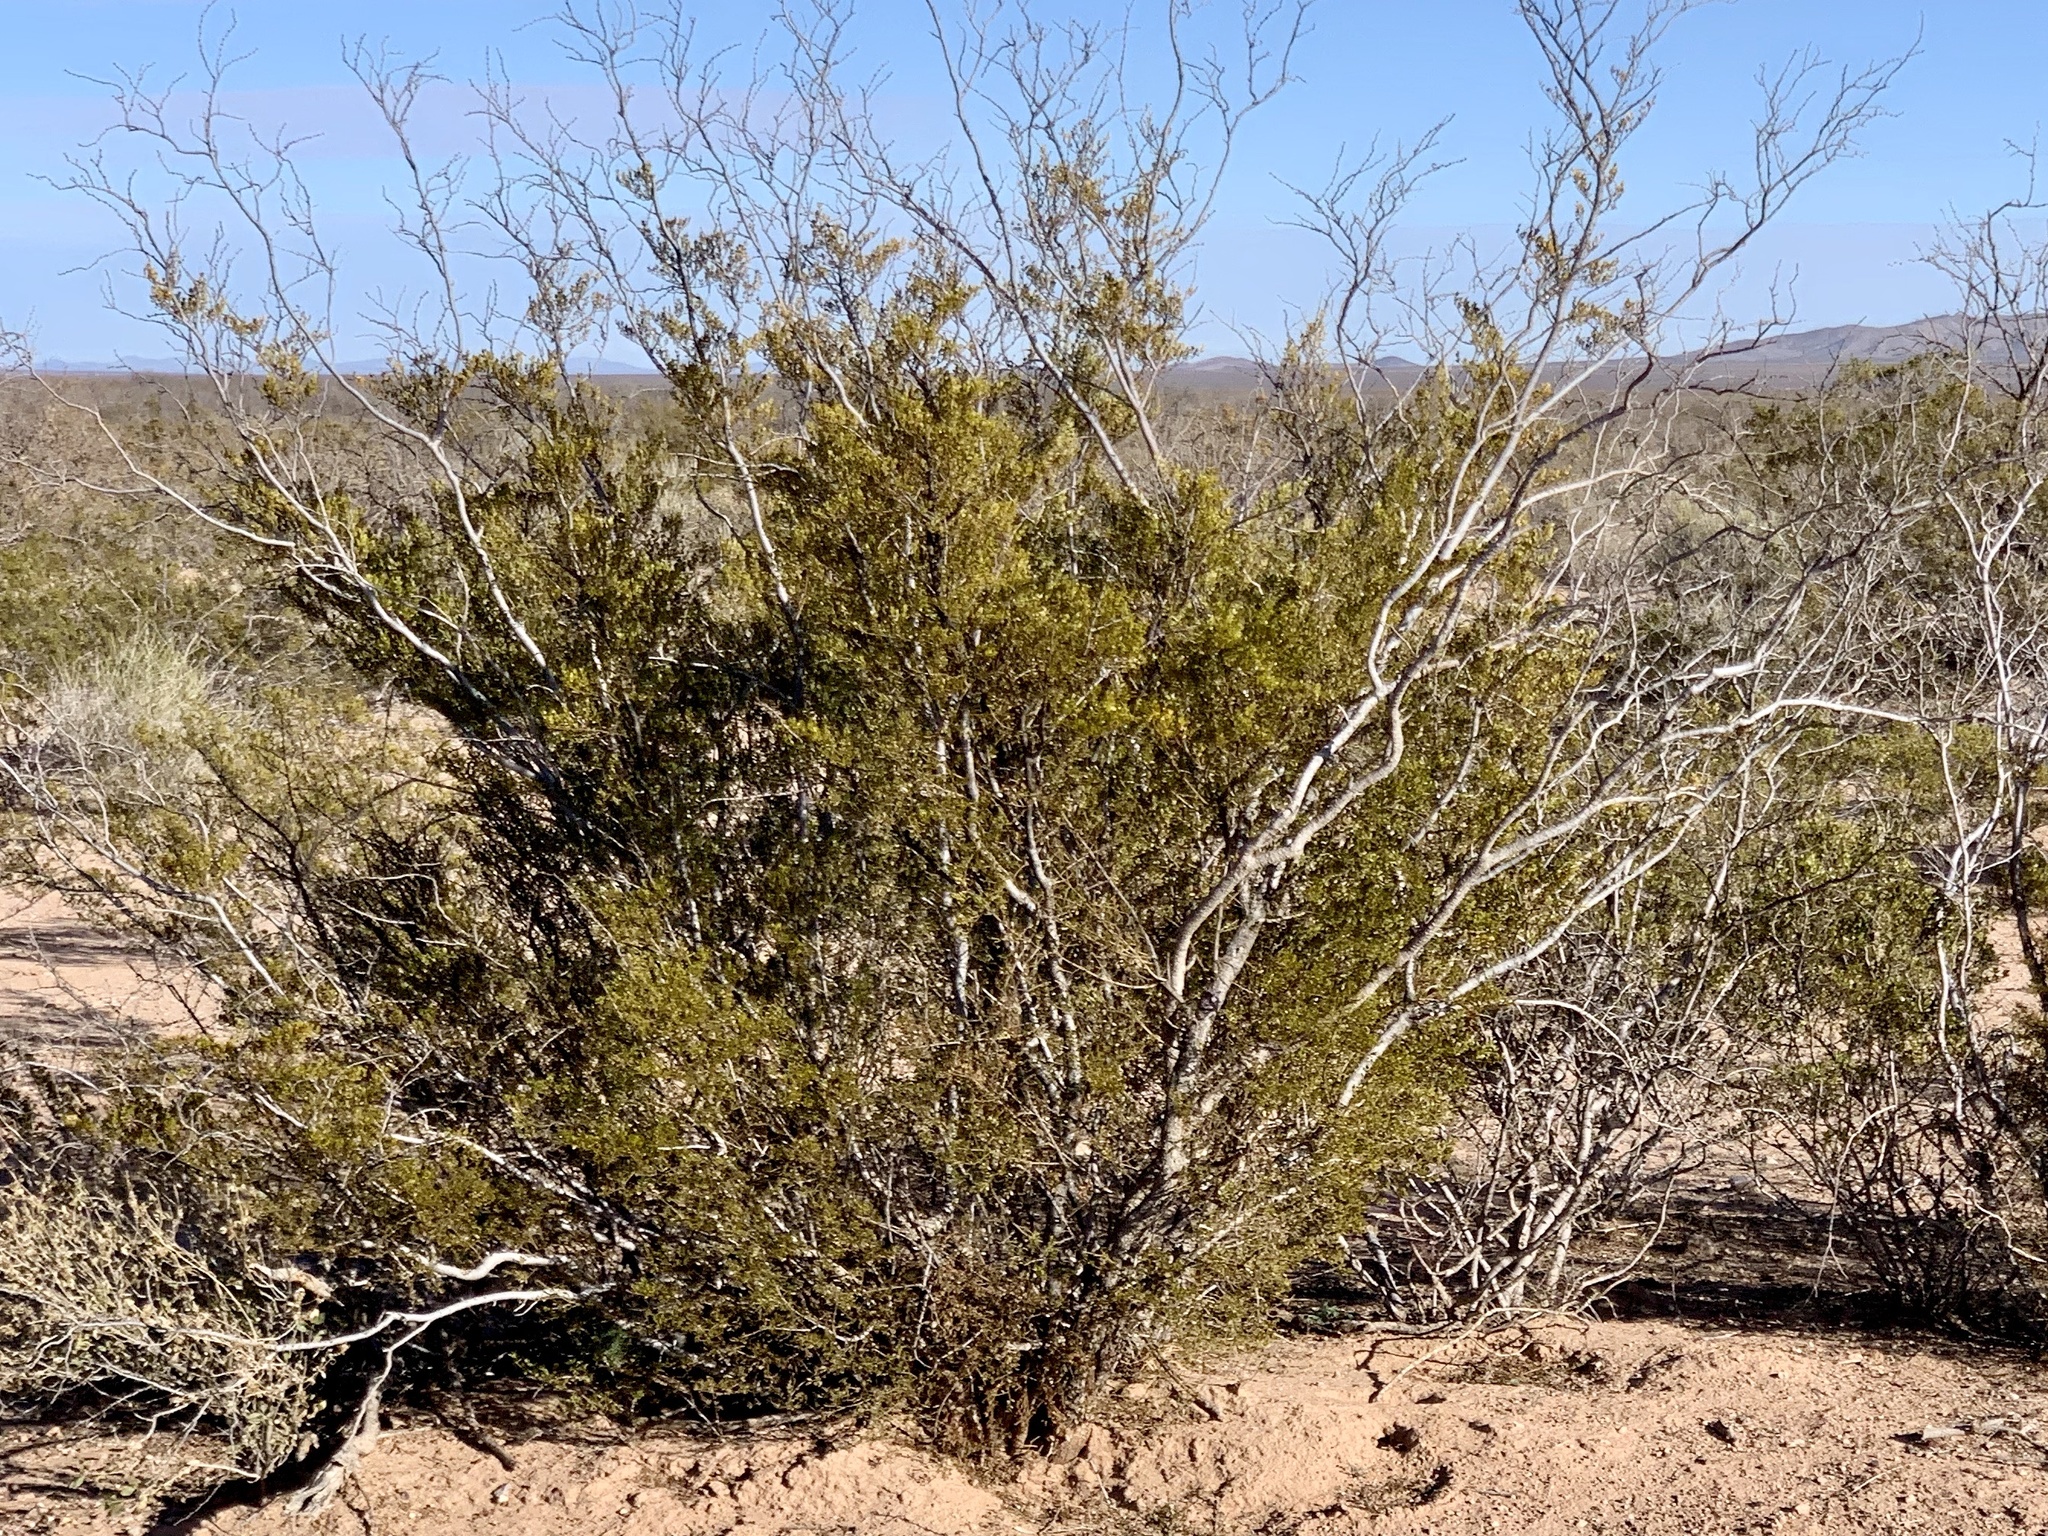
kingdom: Plantae
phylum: Tracheophyta
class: Magnoliopsida
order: Zygophyllales
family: Zygophyllaceae
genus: Larrea
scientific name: Larrea tridentata
